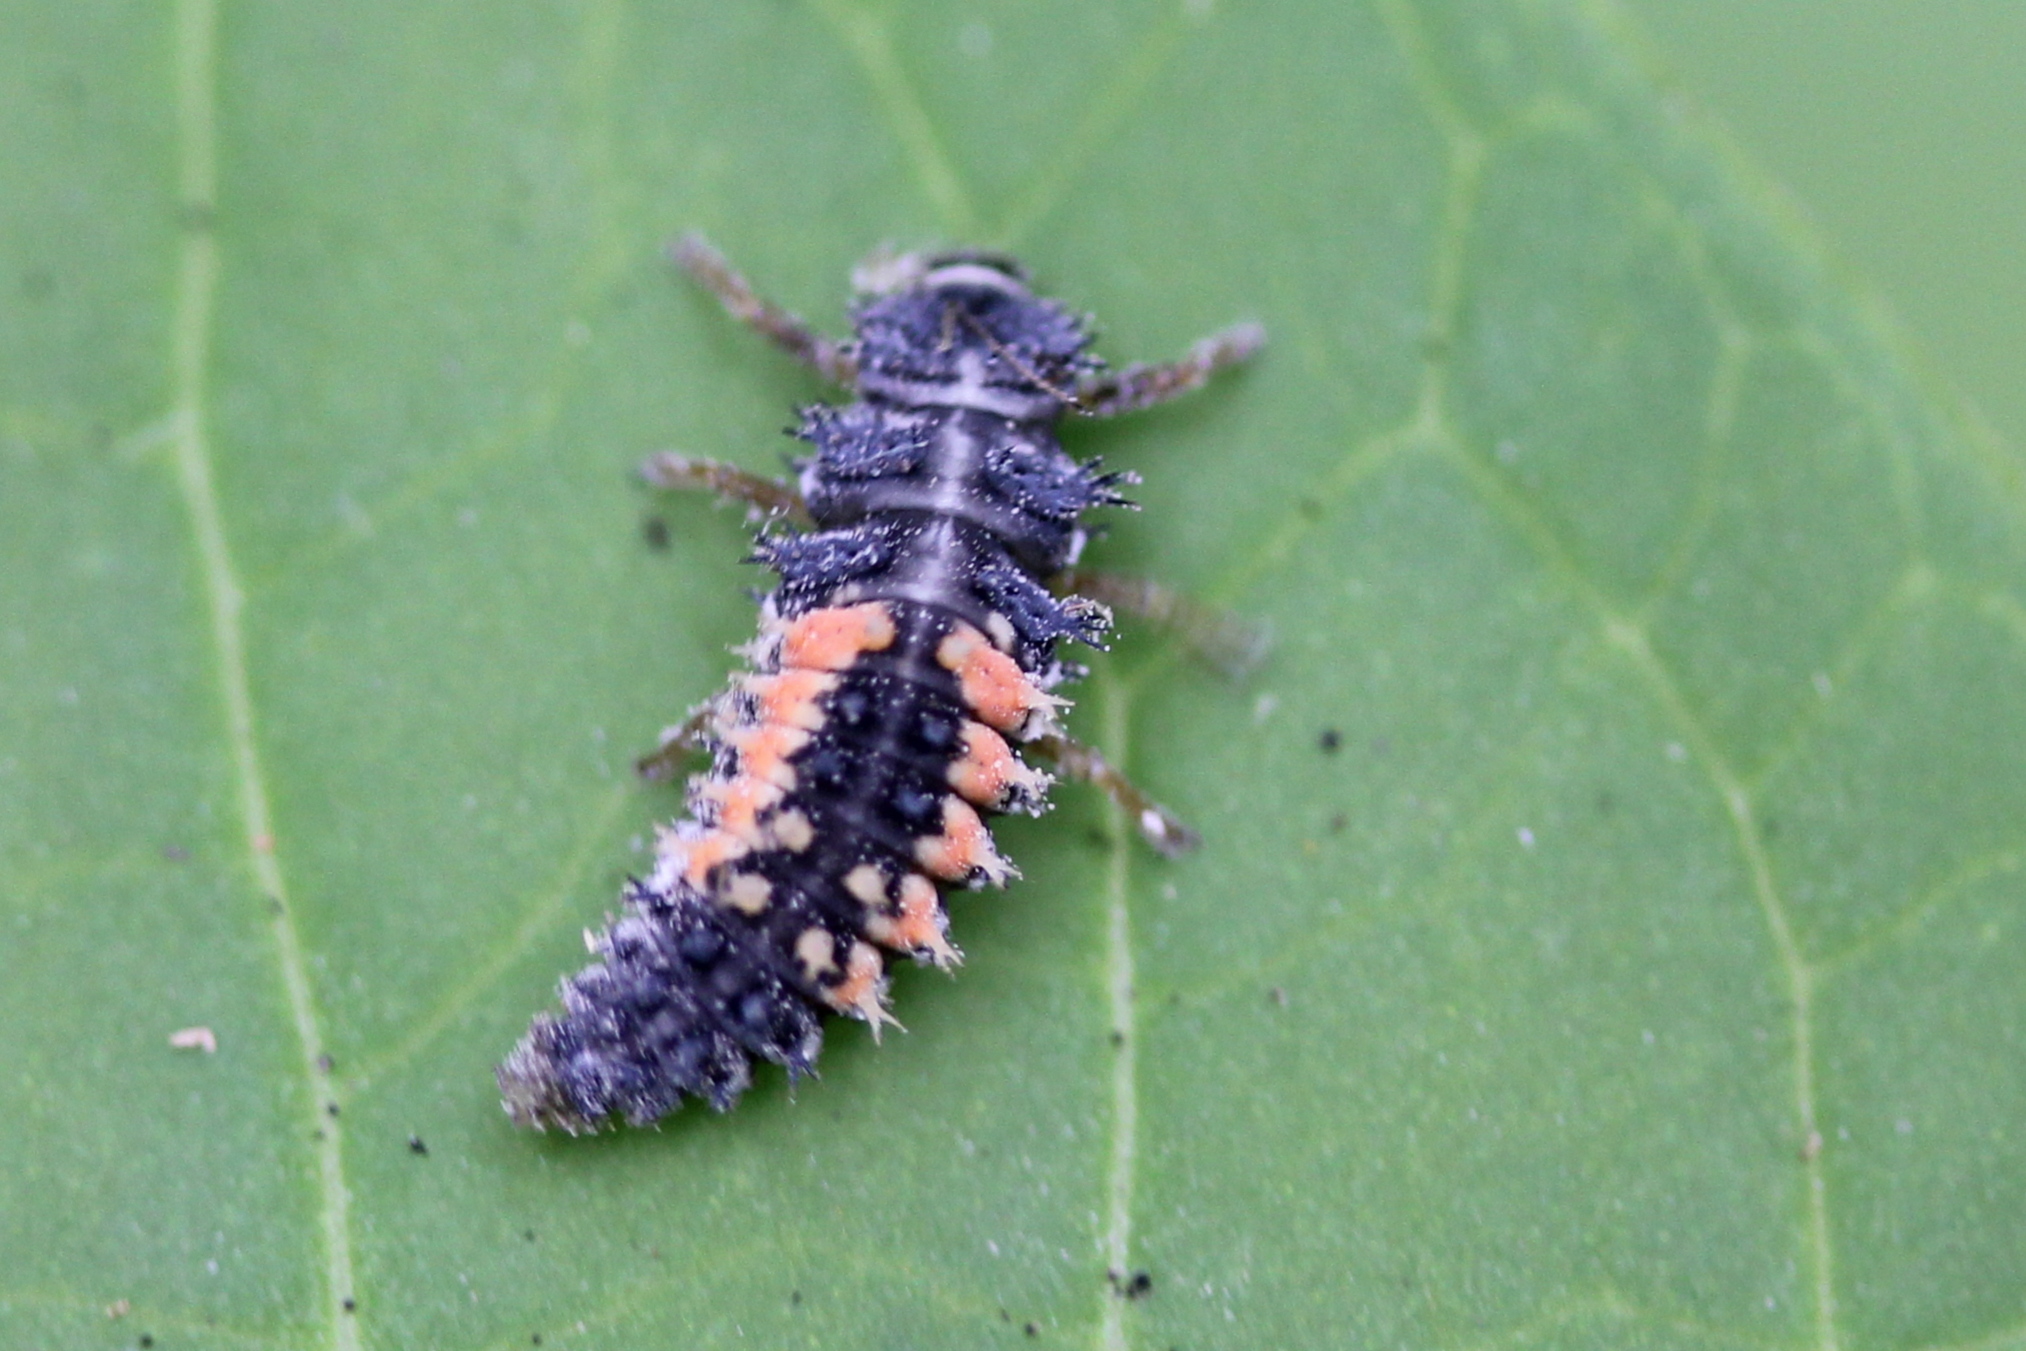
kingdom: Animalia
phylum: Arthropoda
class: Insecta
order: Coleoptera
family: Coccinellidae
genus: Harmonia
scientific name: Harmonia axyridis
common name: Harlequin ladybird
